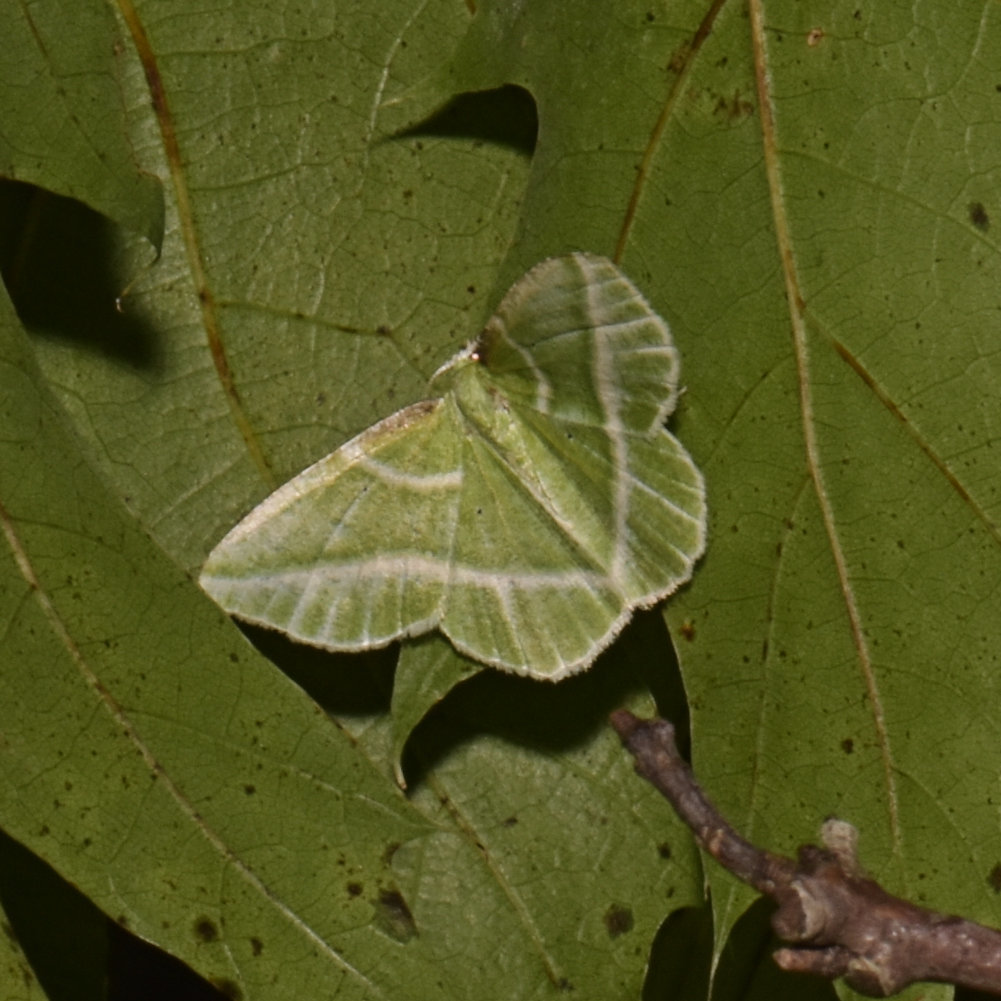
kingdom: Animalia
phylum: Arthropoda
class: Insecta
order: Lepidoptera
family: Geometridae
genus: Dichorda
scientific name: Dichorda iridaria
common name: Showy emerald
